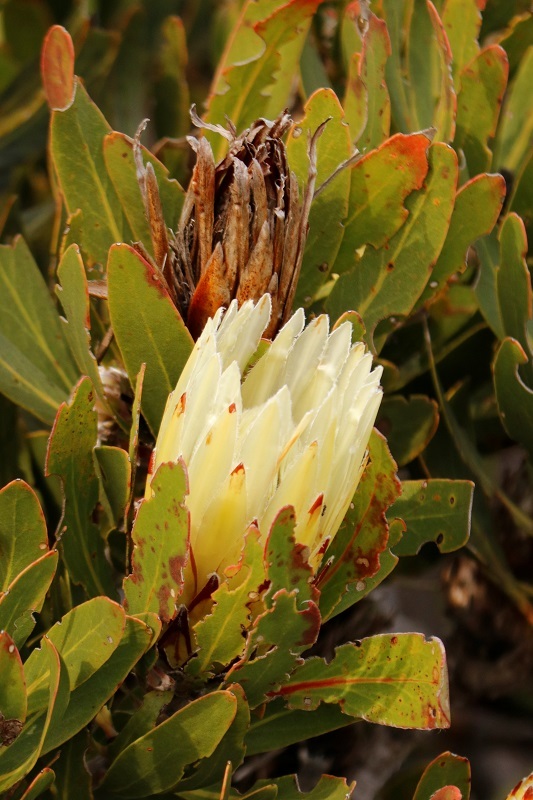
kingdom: Plantae
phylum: Tracheophyta
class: Magnoliopsida
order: Proteales
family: Proteaceae
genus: Protea
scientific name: Protea obtusifolia
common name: Bredasdorp sugarbush
